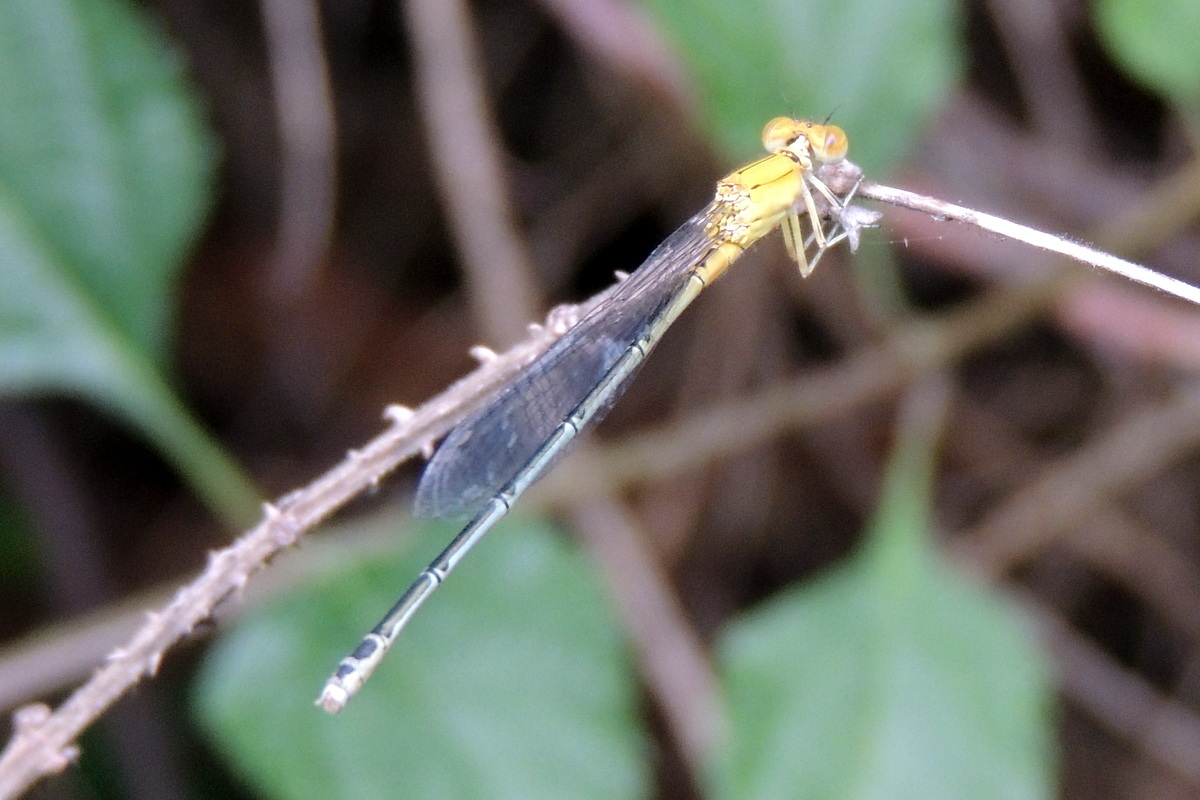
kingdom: Animalia
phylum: Arthropoda
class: Insecta
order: Odonata
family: Coenagrionidae
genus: Pseudagrion
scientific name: Pseudagrion decorum
